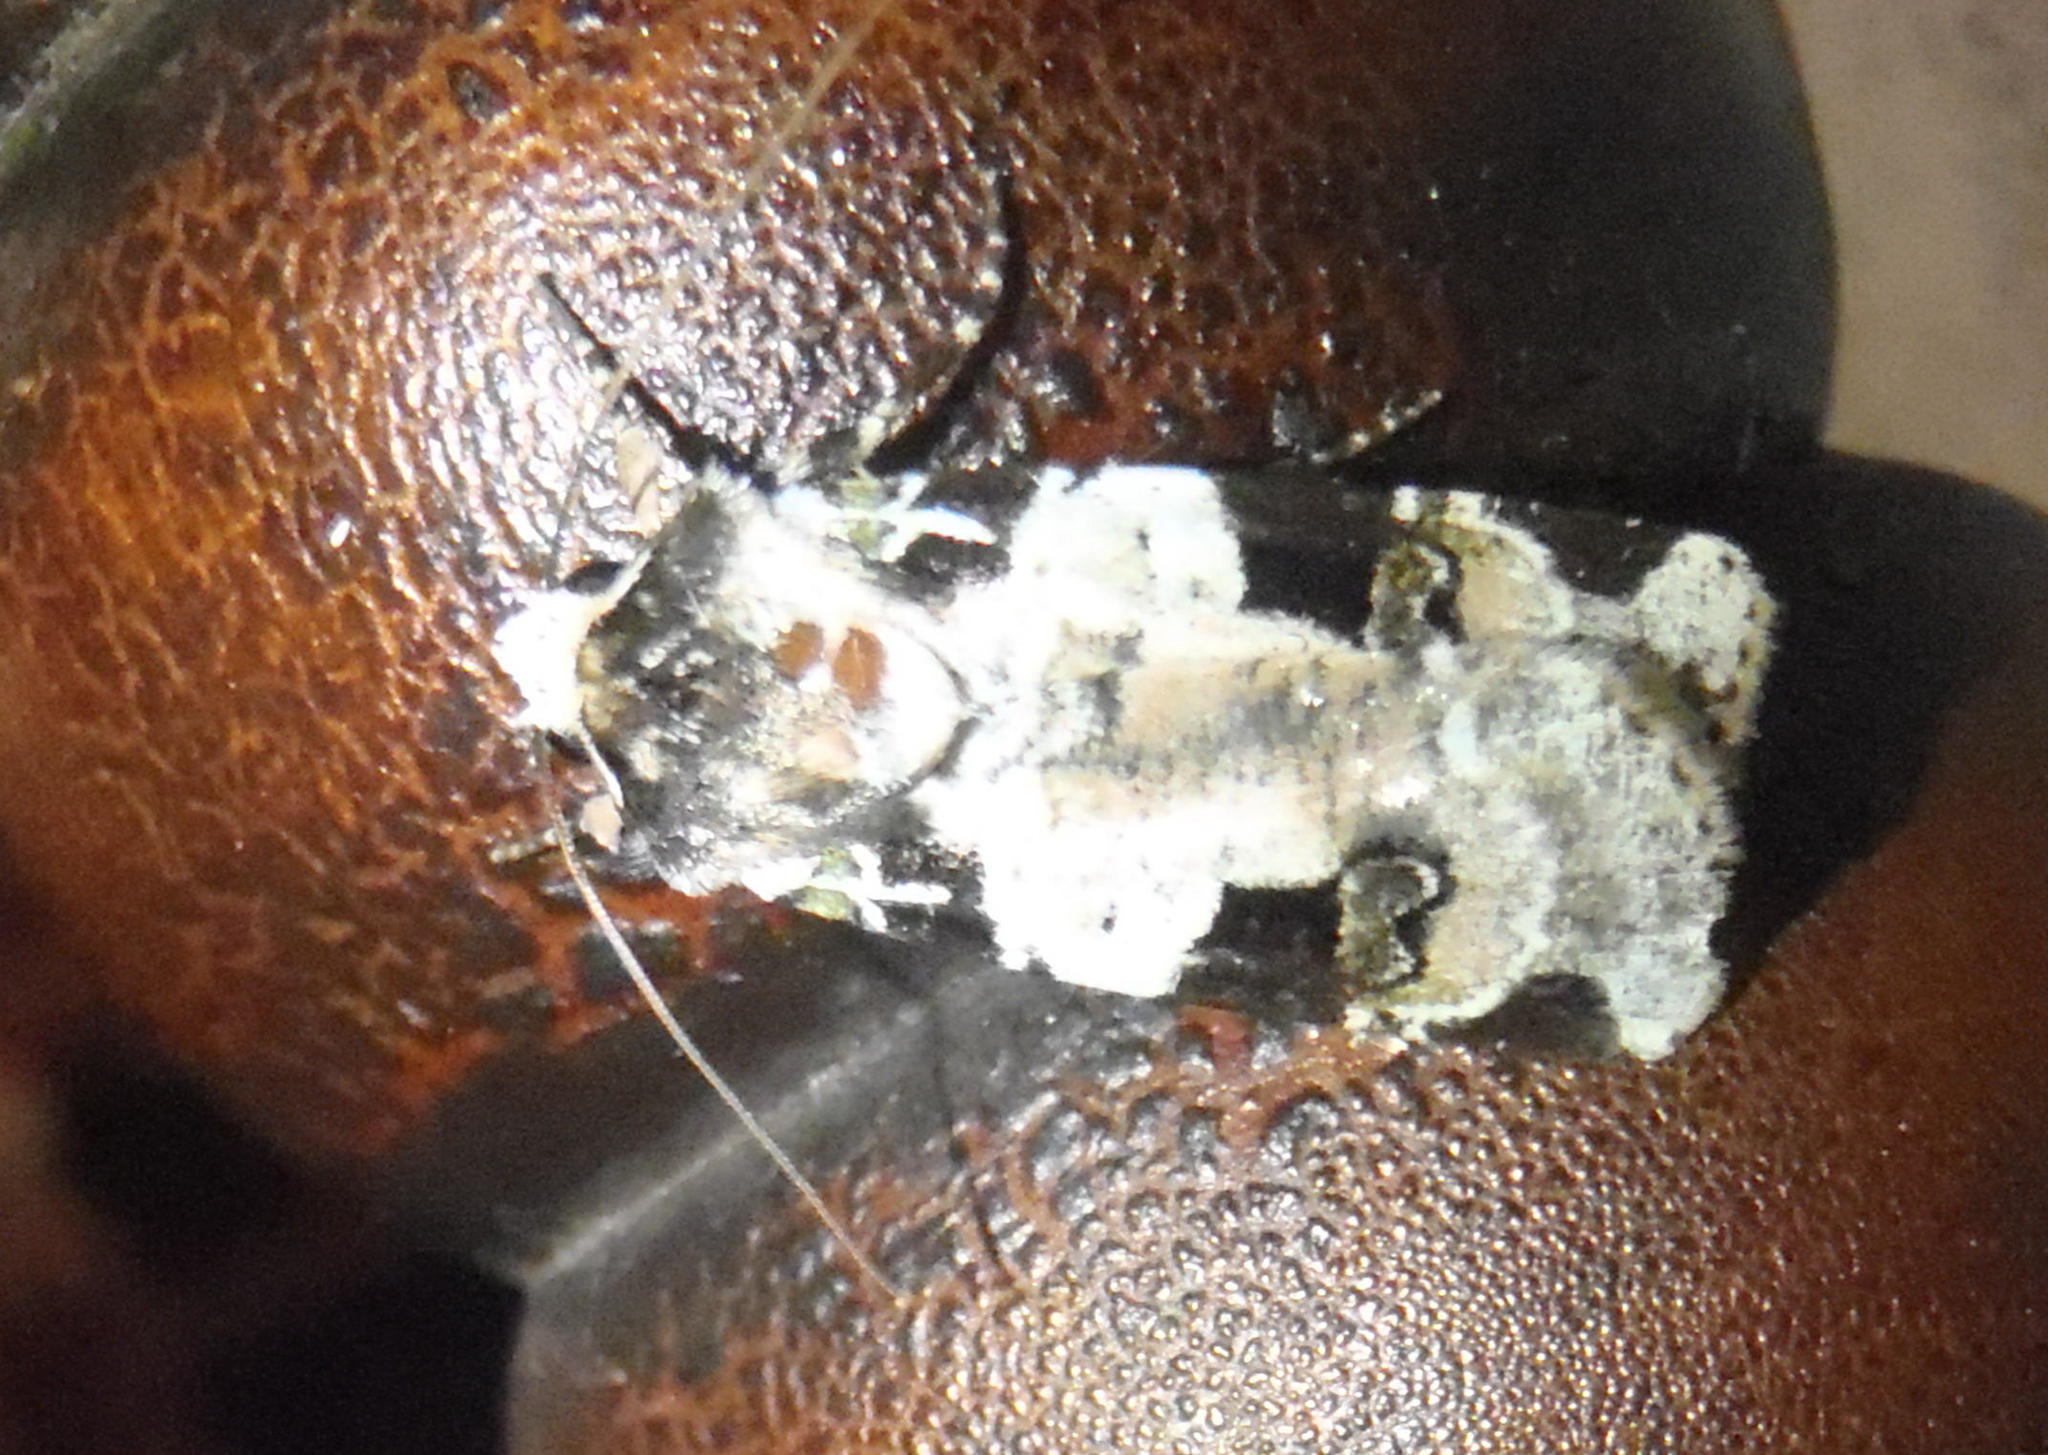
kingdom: Animalia
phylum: Arthropoda
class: Insecta
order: Lepidoptera
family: Noctuidae
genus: Mentaxya
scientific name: Mentaxya albifrons
